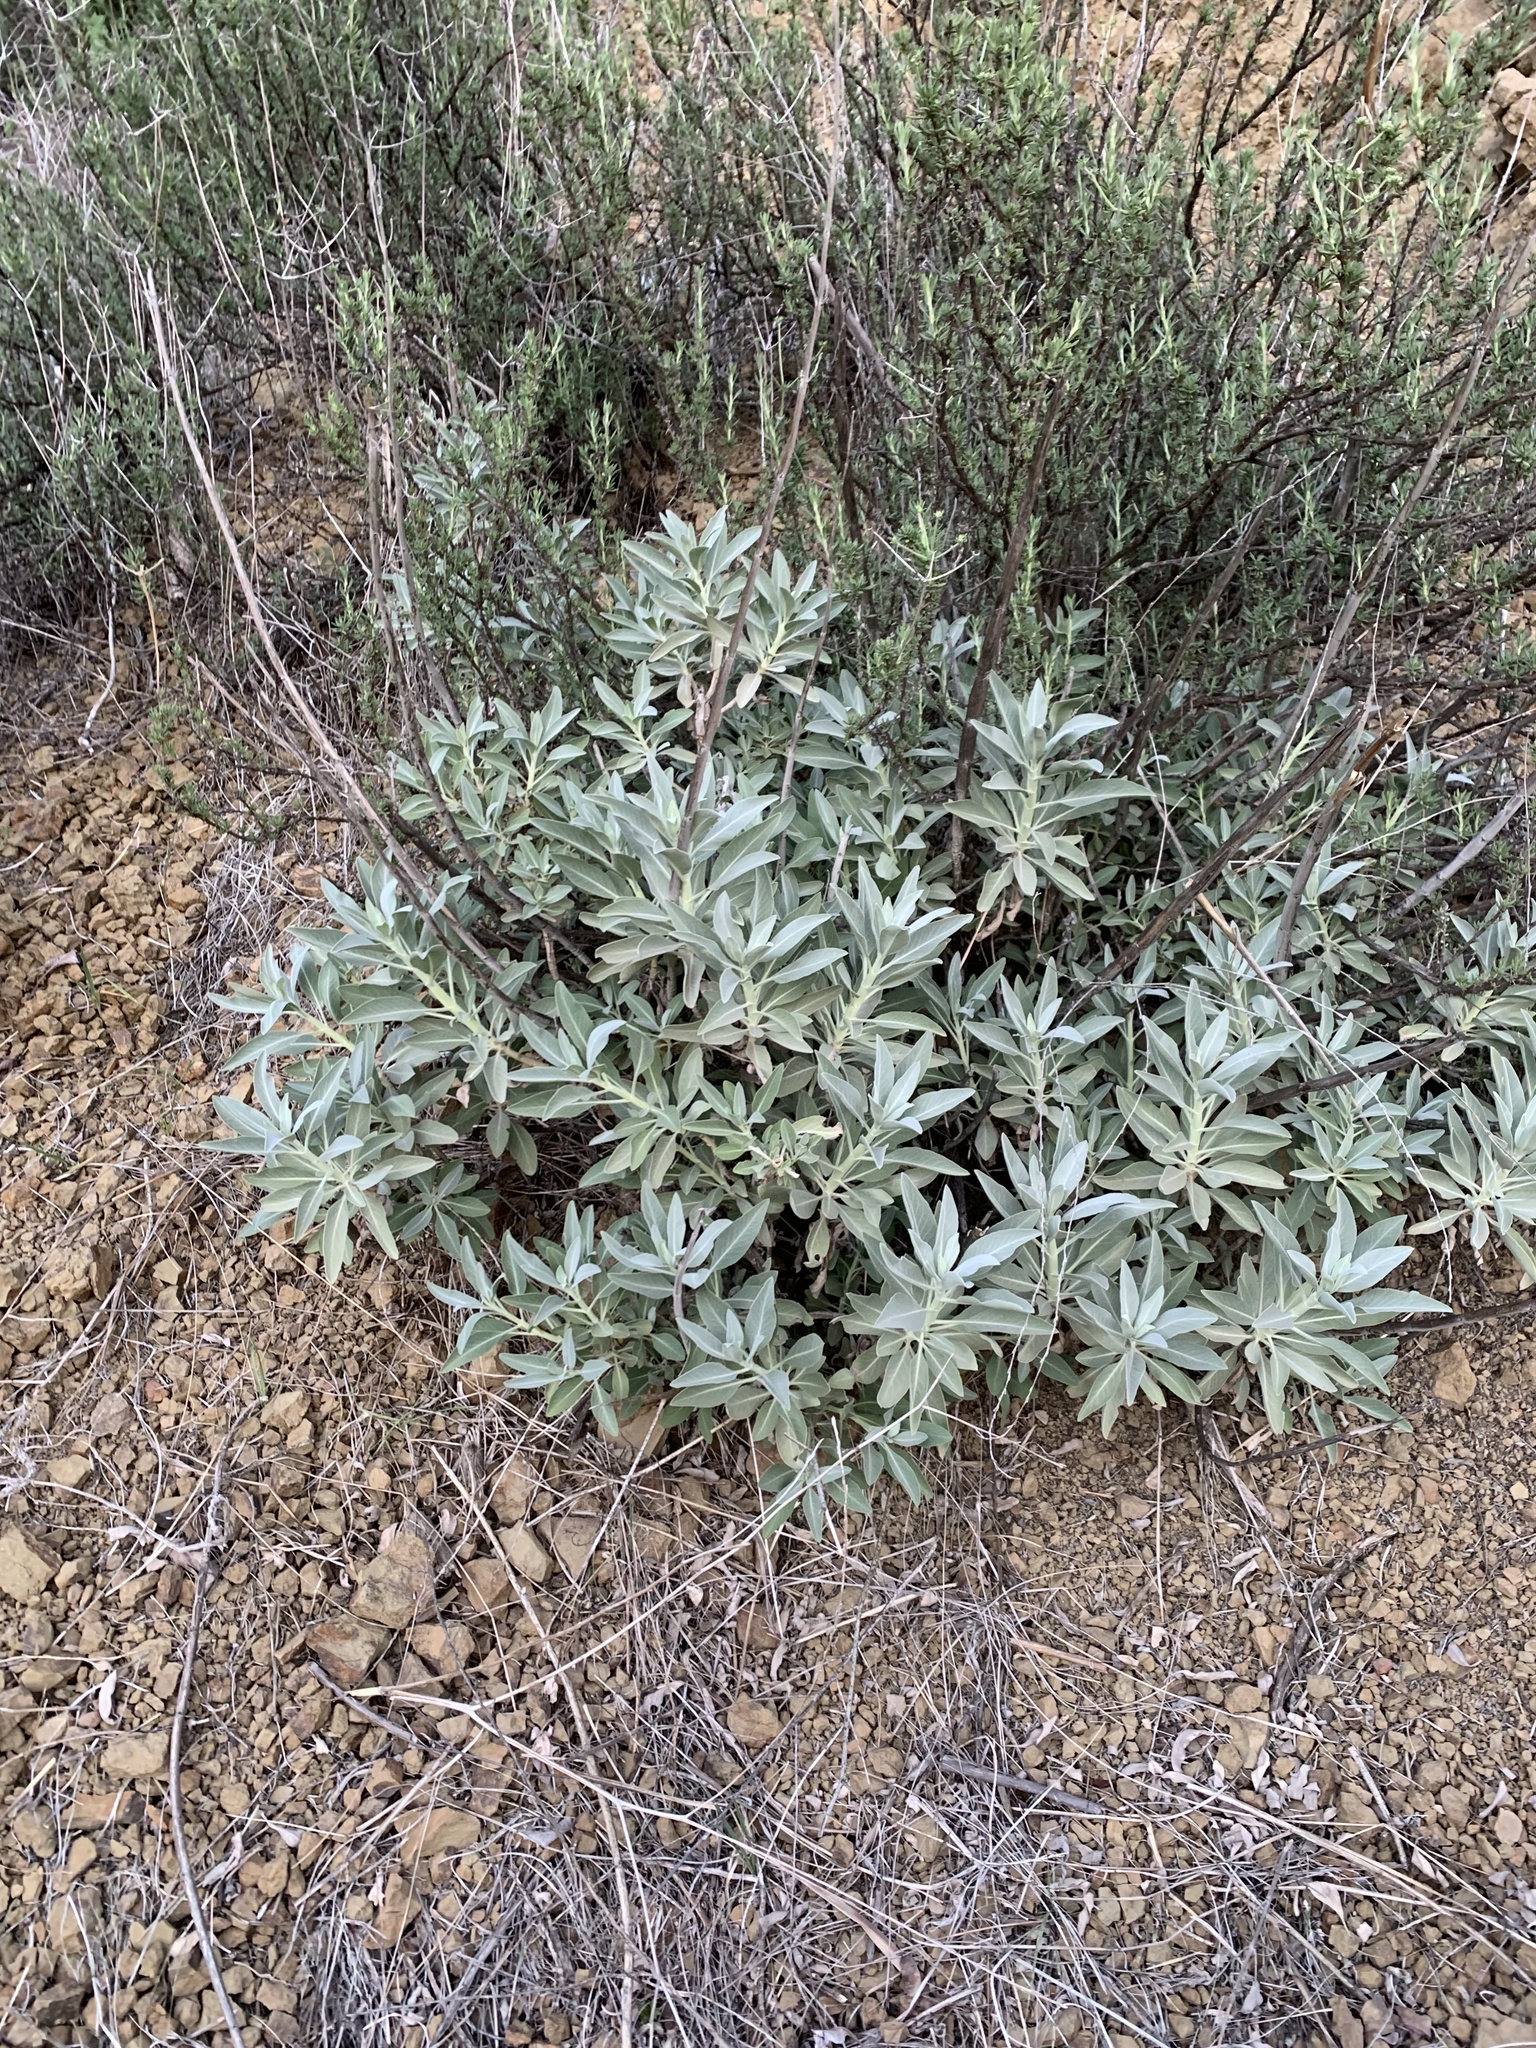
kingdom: Plantae
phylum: Tracheophyta
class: Magnoliopsida
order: Lamiales
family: Lamiaceae
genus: Salvia
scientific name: Salvia apiana
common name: White sage
